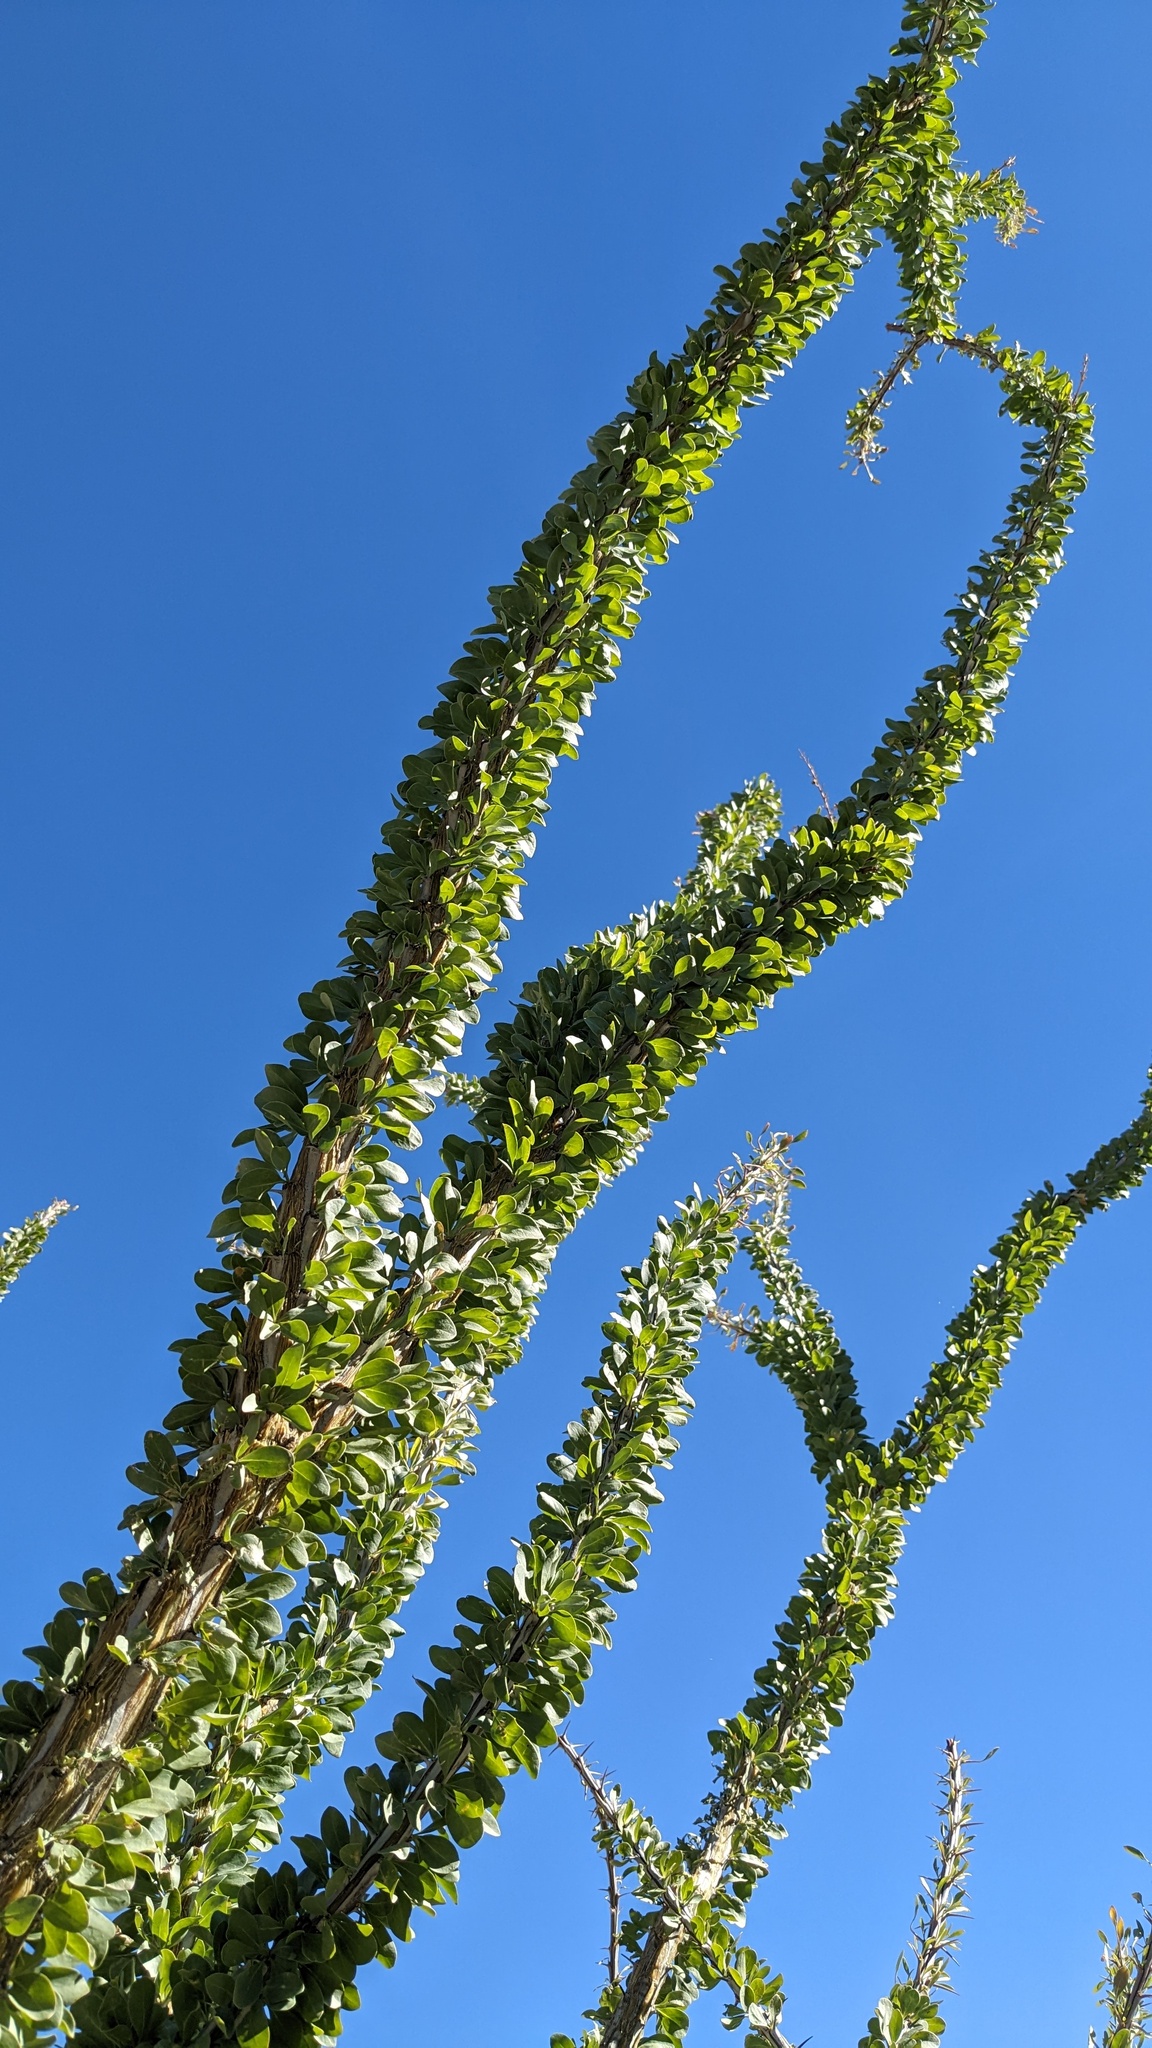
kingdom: Plantae
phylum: Tracheophyta
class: Magnoliopsida
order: Ericales
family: Fouquieriaceae
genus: Fouquieria
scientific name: Fouquieria splendens
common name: Vine-cactus
